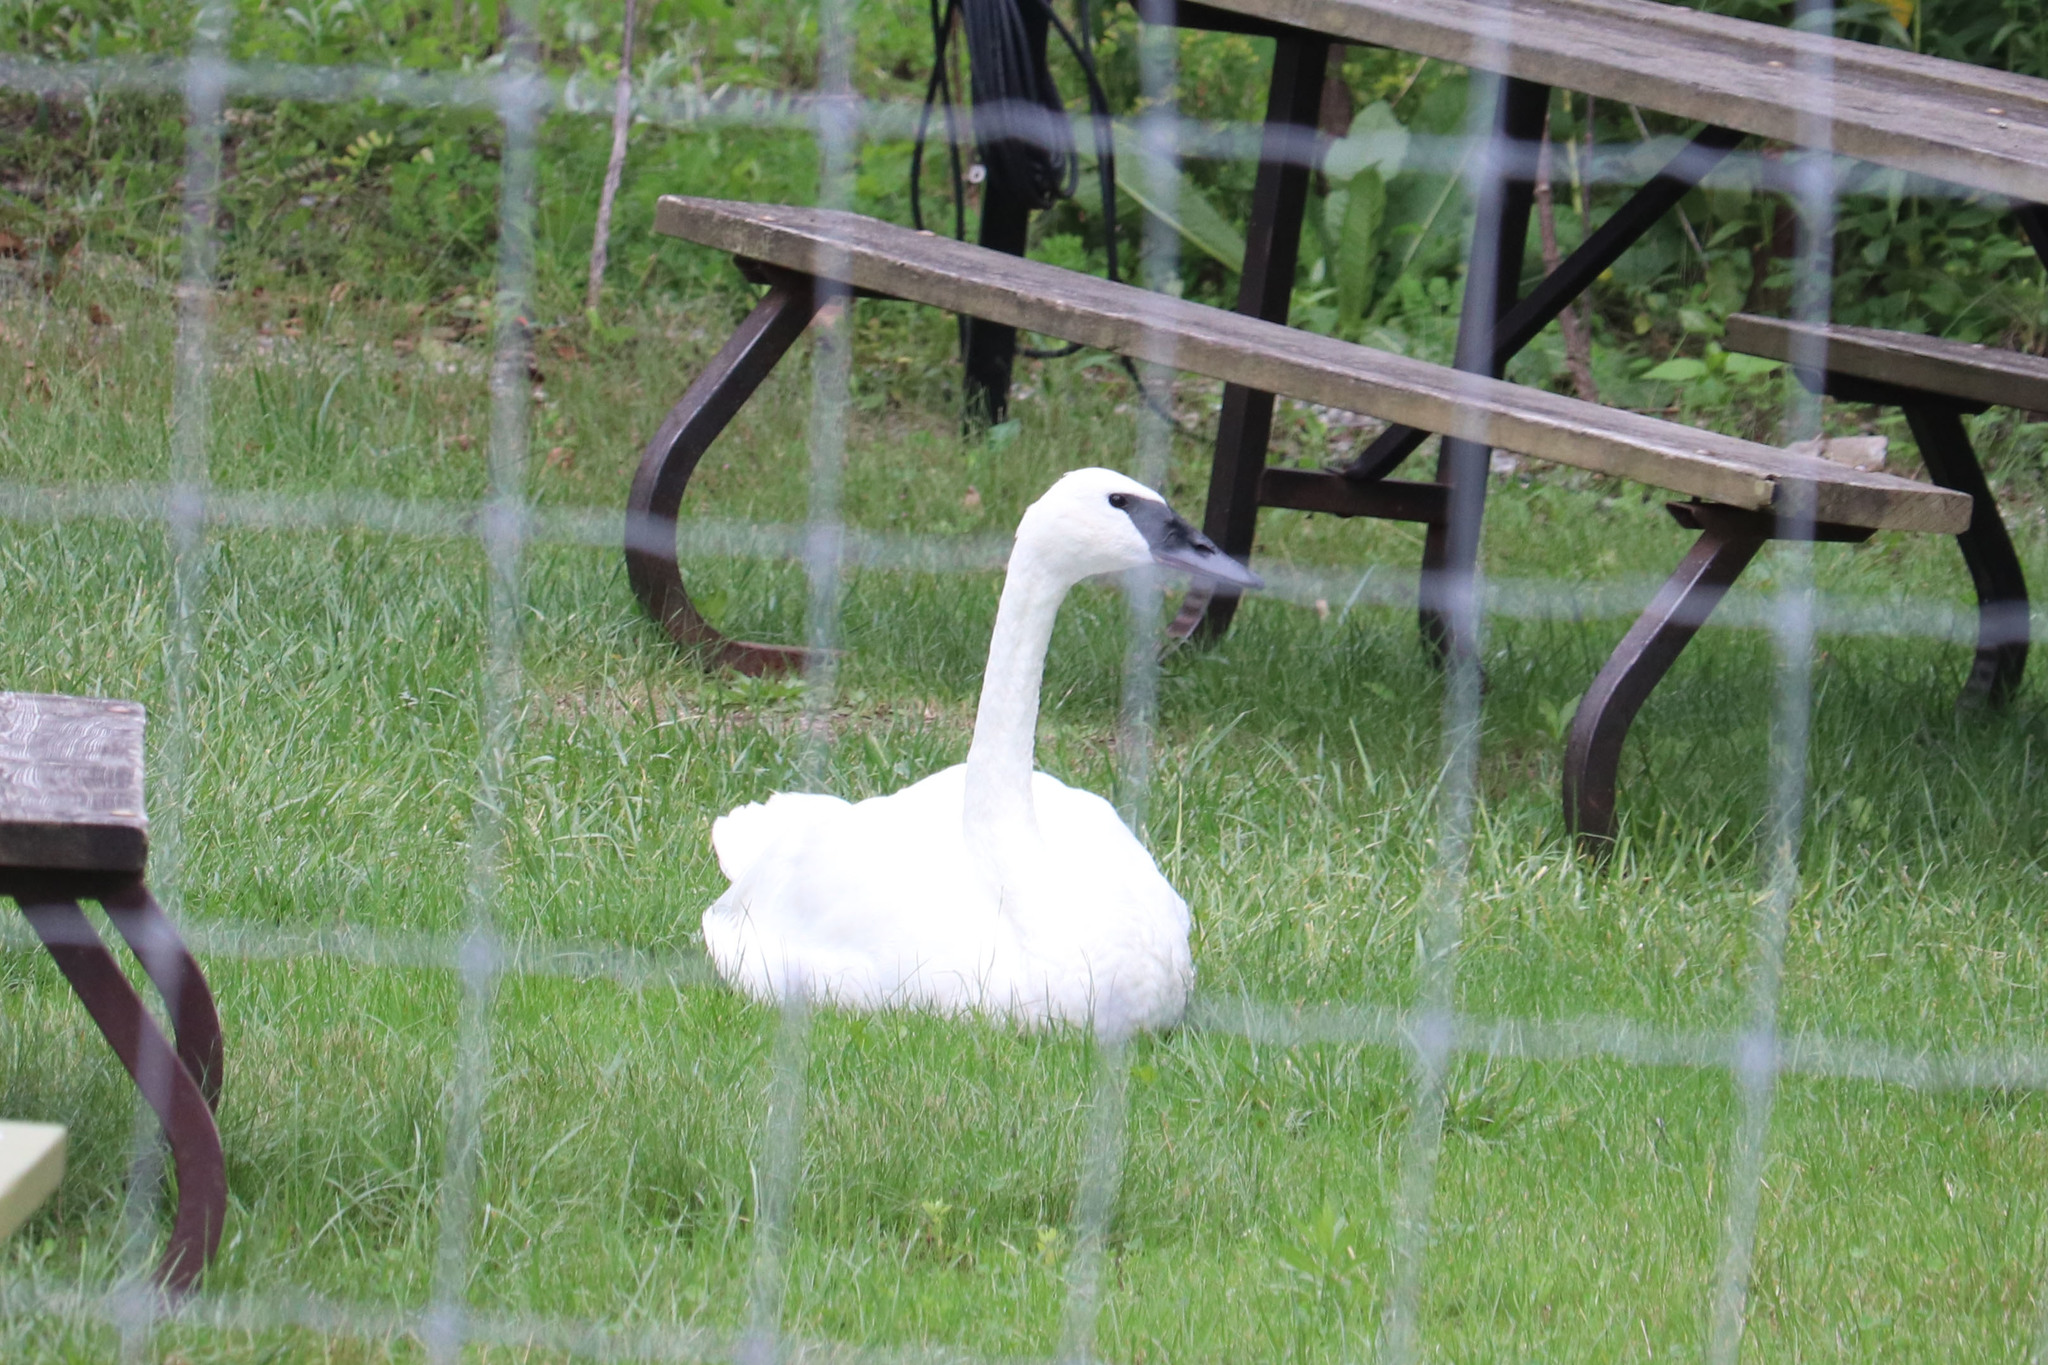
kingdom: Animalia
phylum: Chordata
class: Aves
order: Anseriformes
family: Anatidae
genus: Cygnus
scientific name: Cygnus buccinator
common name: Trumpeter swan
